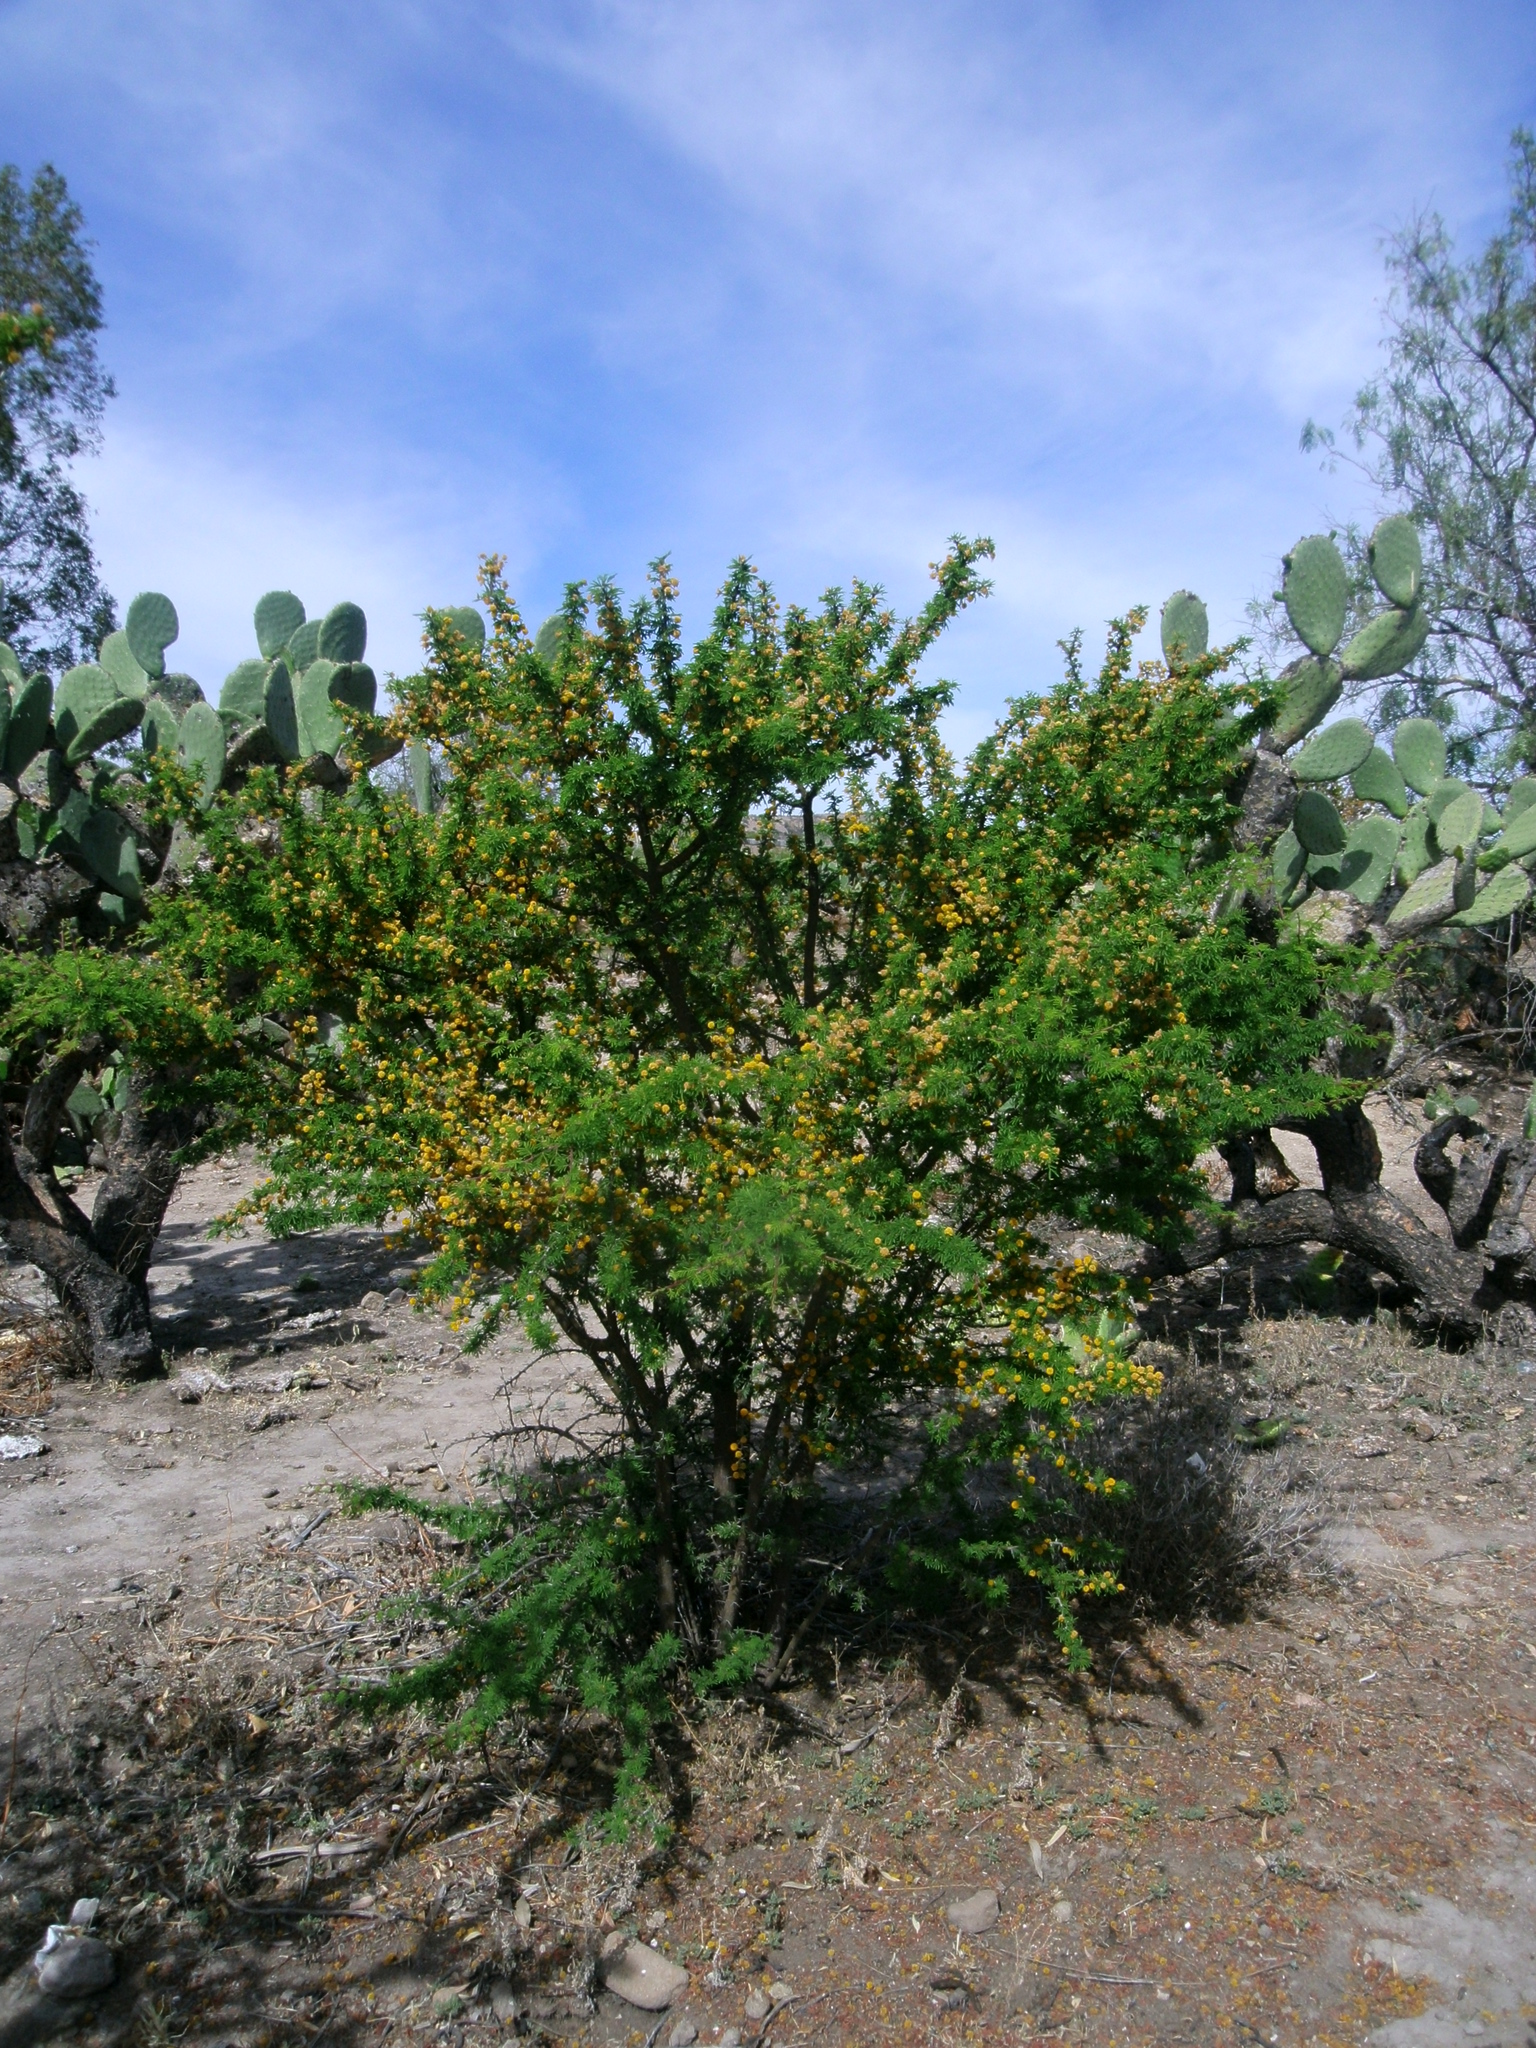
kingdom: Plantae
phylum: Tracheophyta
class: Magnoliopsida
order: Fabales
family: Fabaceae
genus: Vachellia
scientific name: Vachellia farnesiana
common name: Sweet acacia
